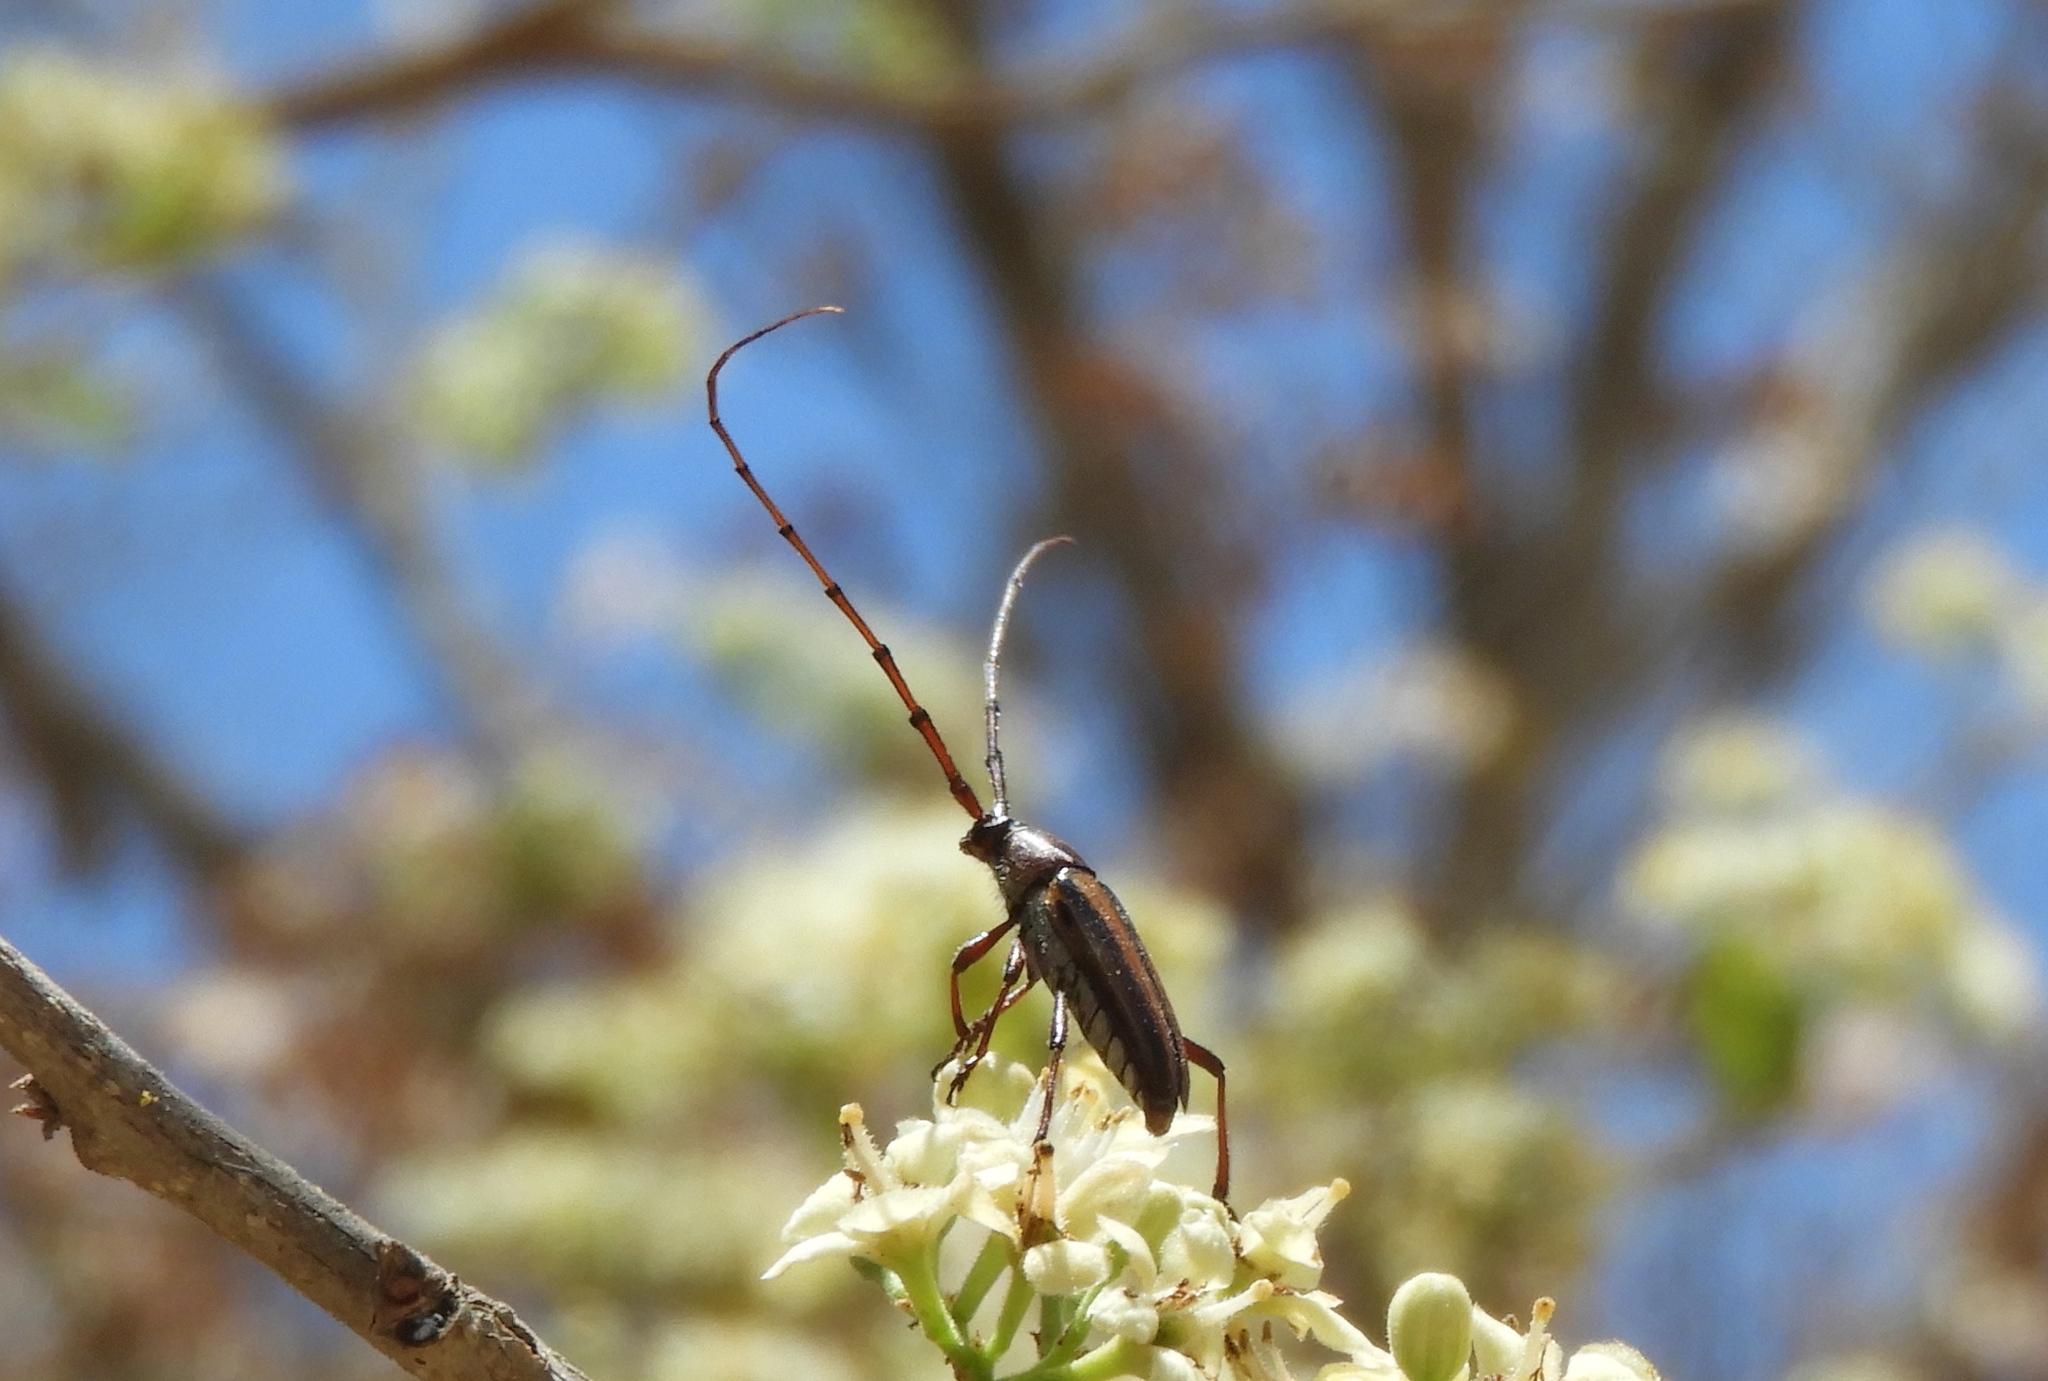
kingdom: Animalia
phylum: Arthropoda
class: Insecta
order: Coleoptera
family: Cerambycidae
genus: Sphaenothecus
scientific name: Sphaenothecus maccartyi
